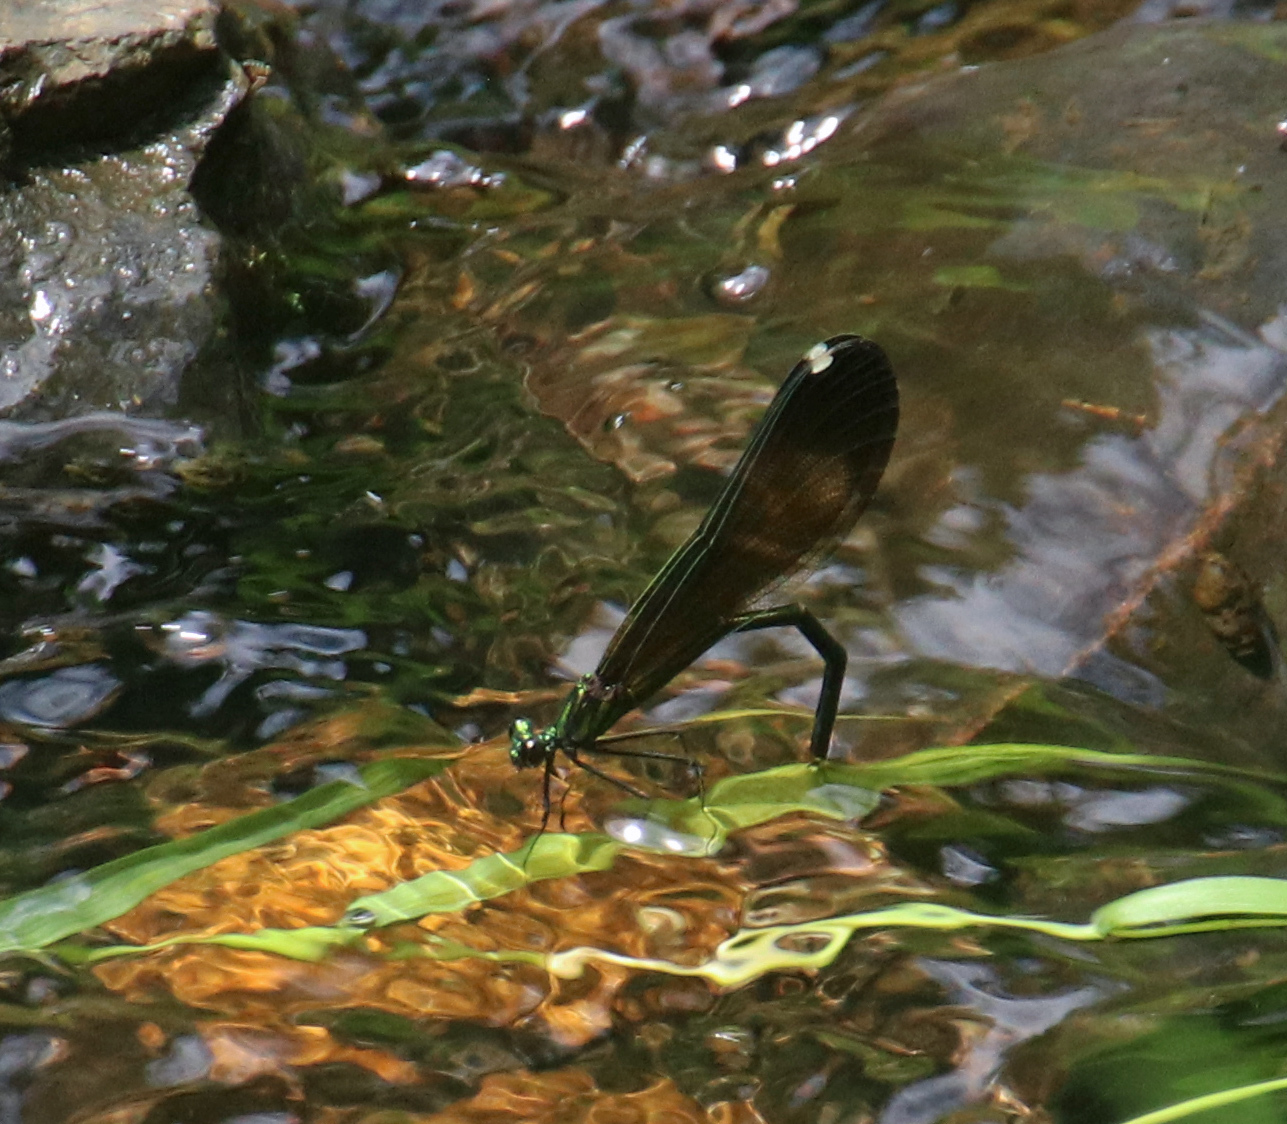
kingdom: Animalia
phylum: Arthropoda
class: Insecta
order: Odonata
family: Calopterygidae
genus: Calopteryx
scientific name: Calopteryx maculata
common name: Ebony jewelwing
